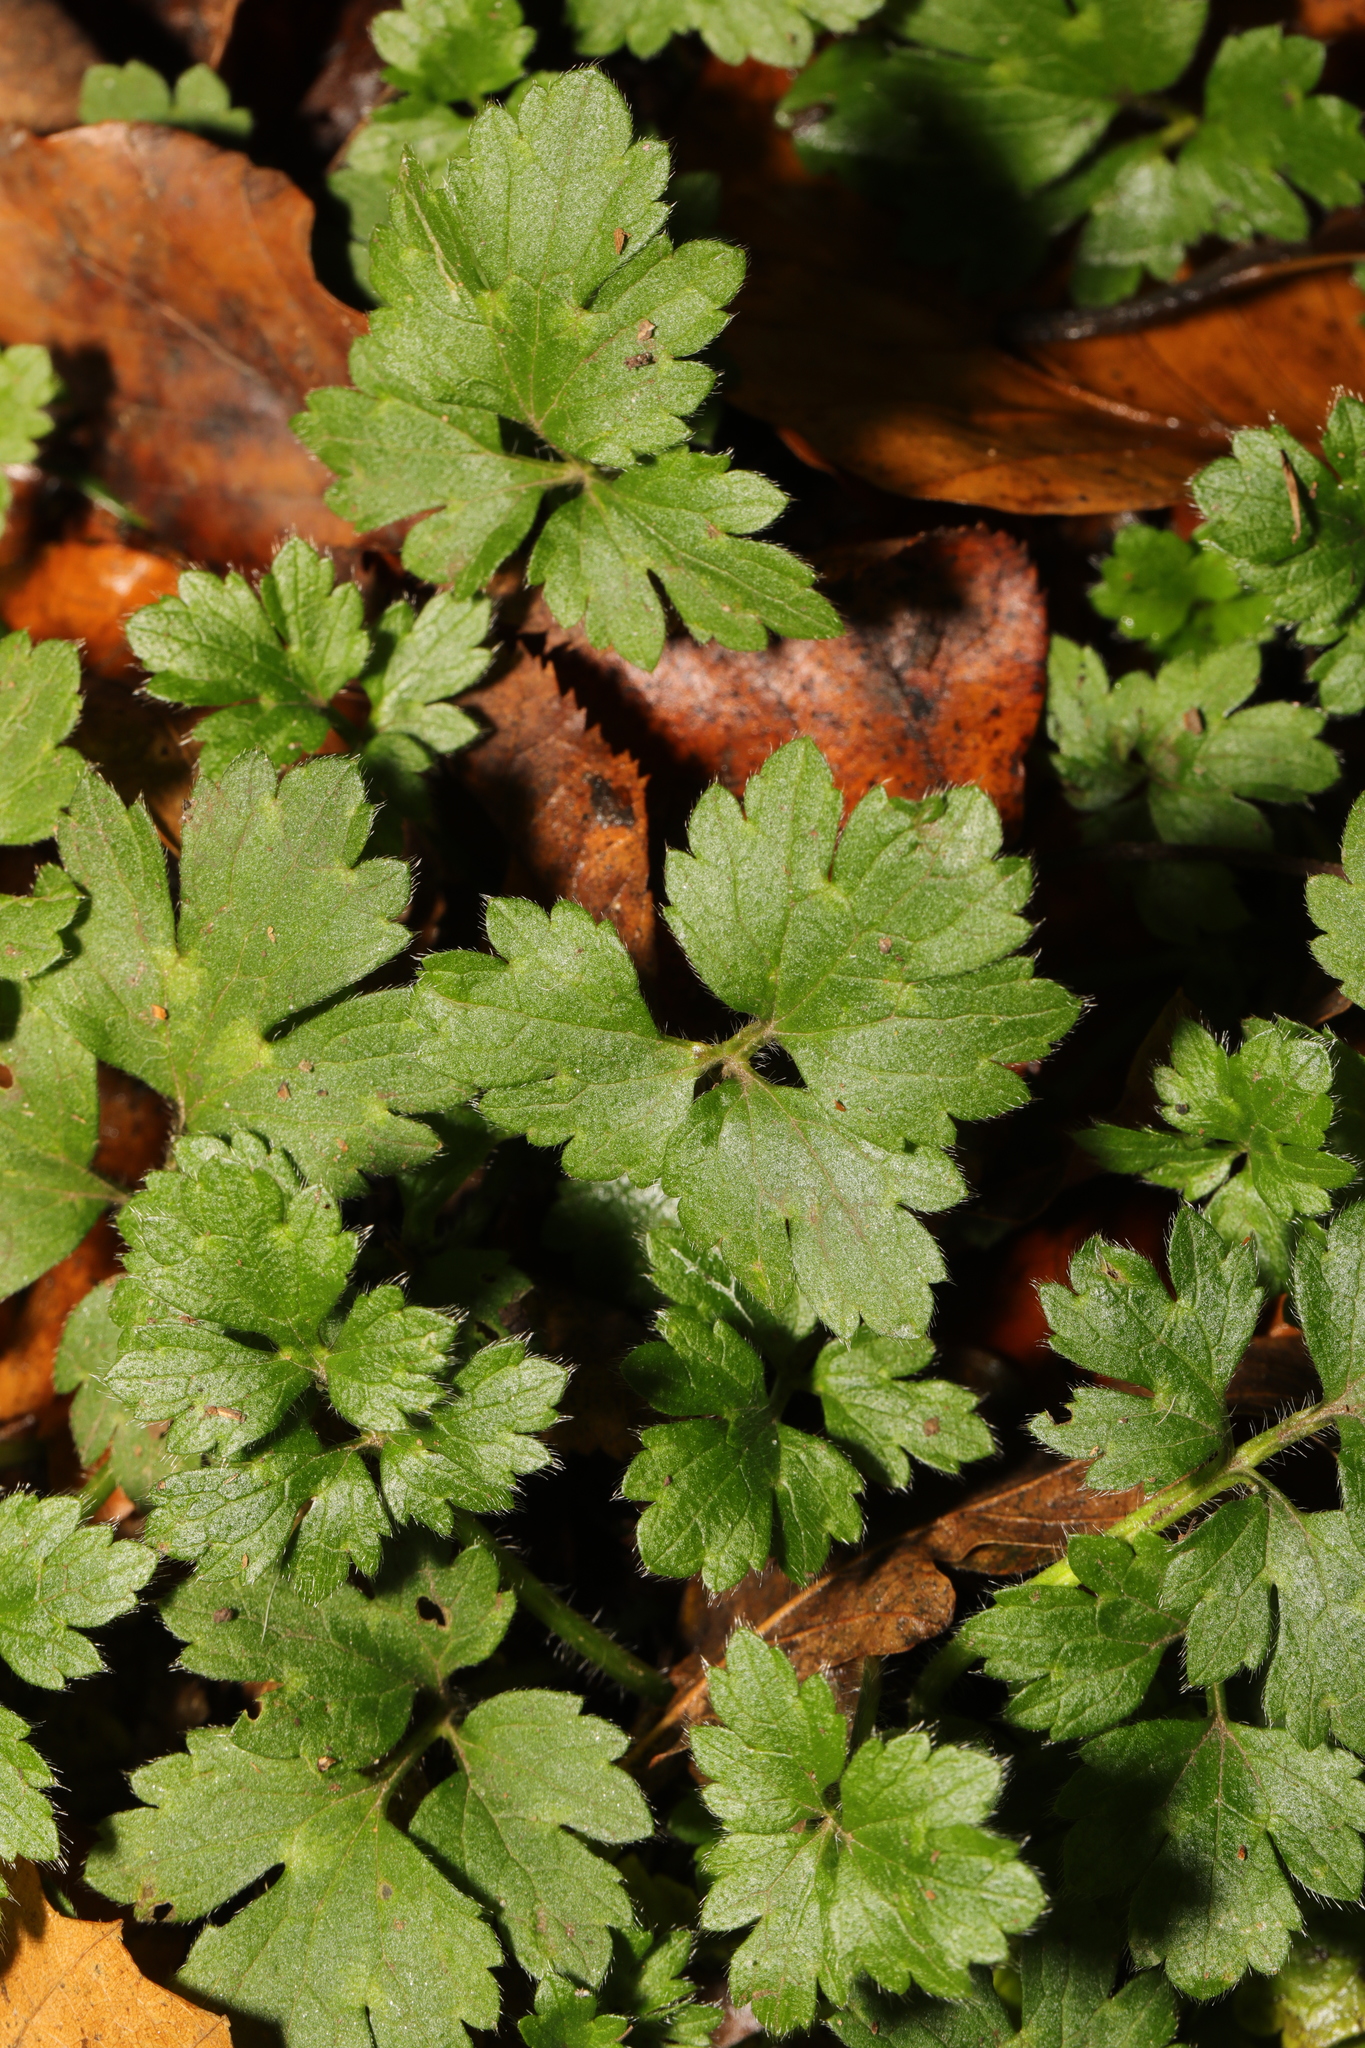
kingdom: Plantae
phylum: Tracheophyta
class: Magnoliopsida
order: Ranunculales
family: Ranunculaceae
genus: Ranunculus
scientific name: Ranunculus repens
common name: Creeping buttercup
